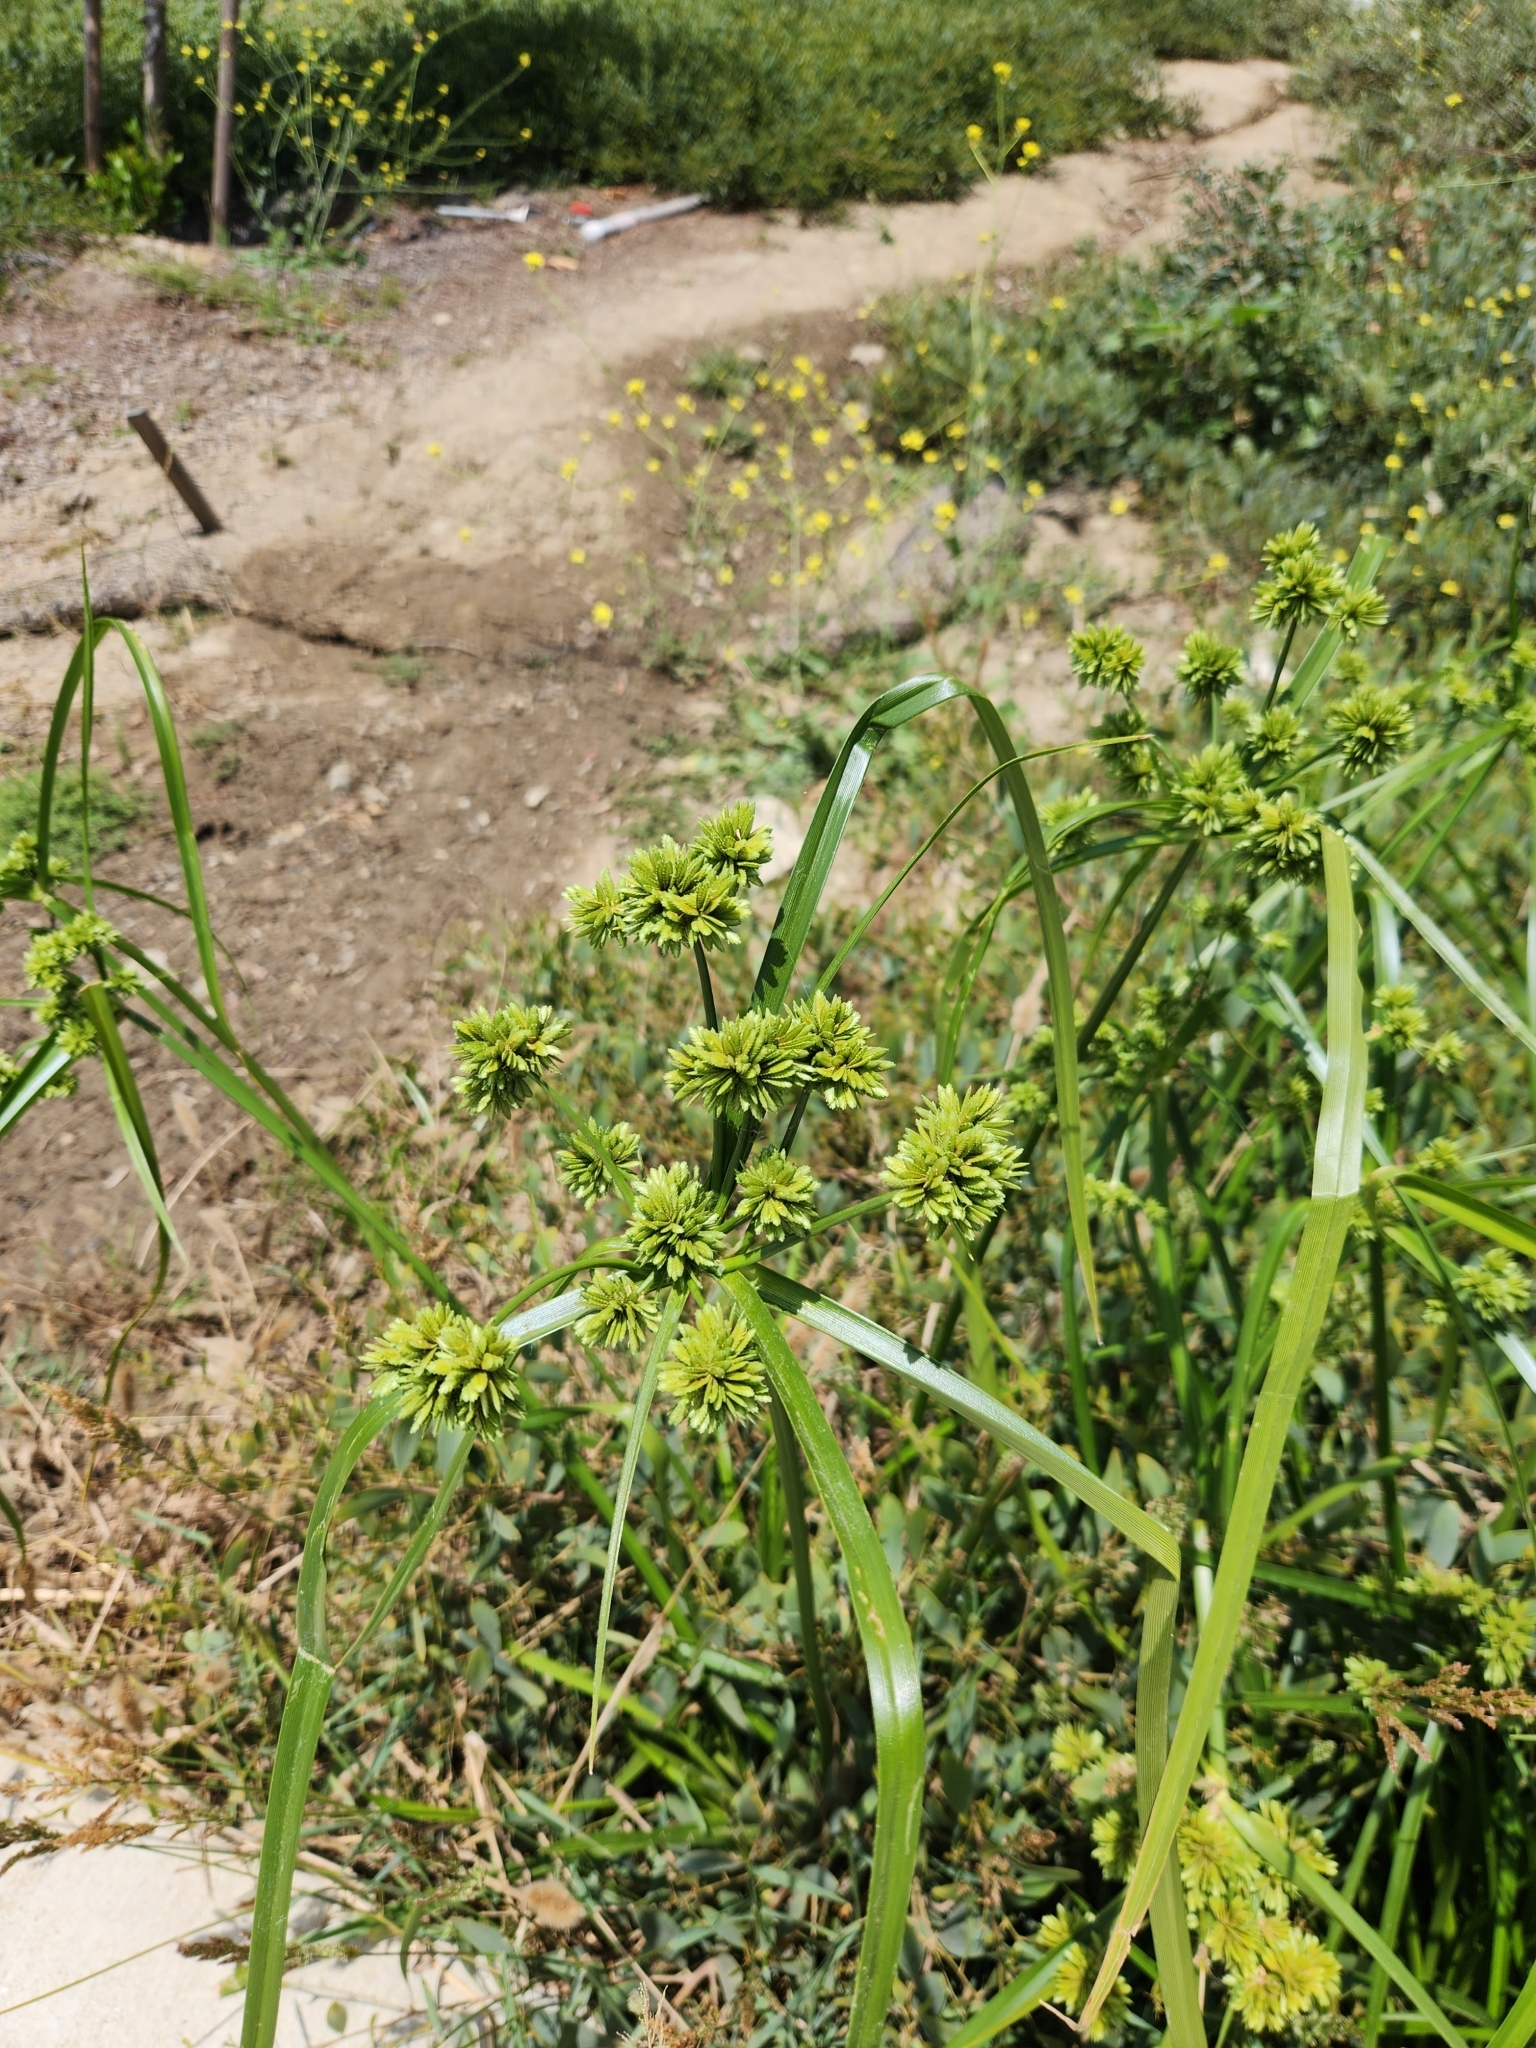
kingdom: Plantae
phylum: Tracheophyta
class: Liliopsida
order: Poales
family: Cyperaceae
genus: Cyperus
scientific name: Cyperus eragrostis
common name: Tall flatsedge
